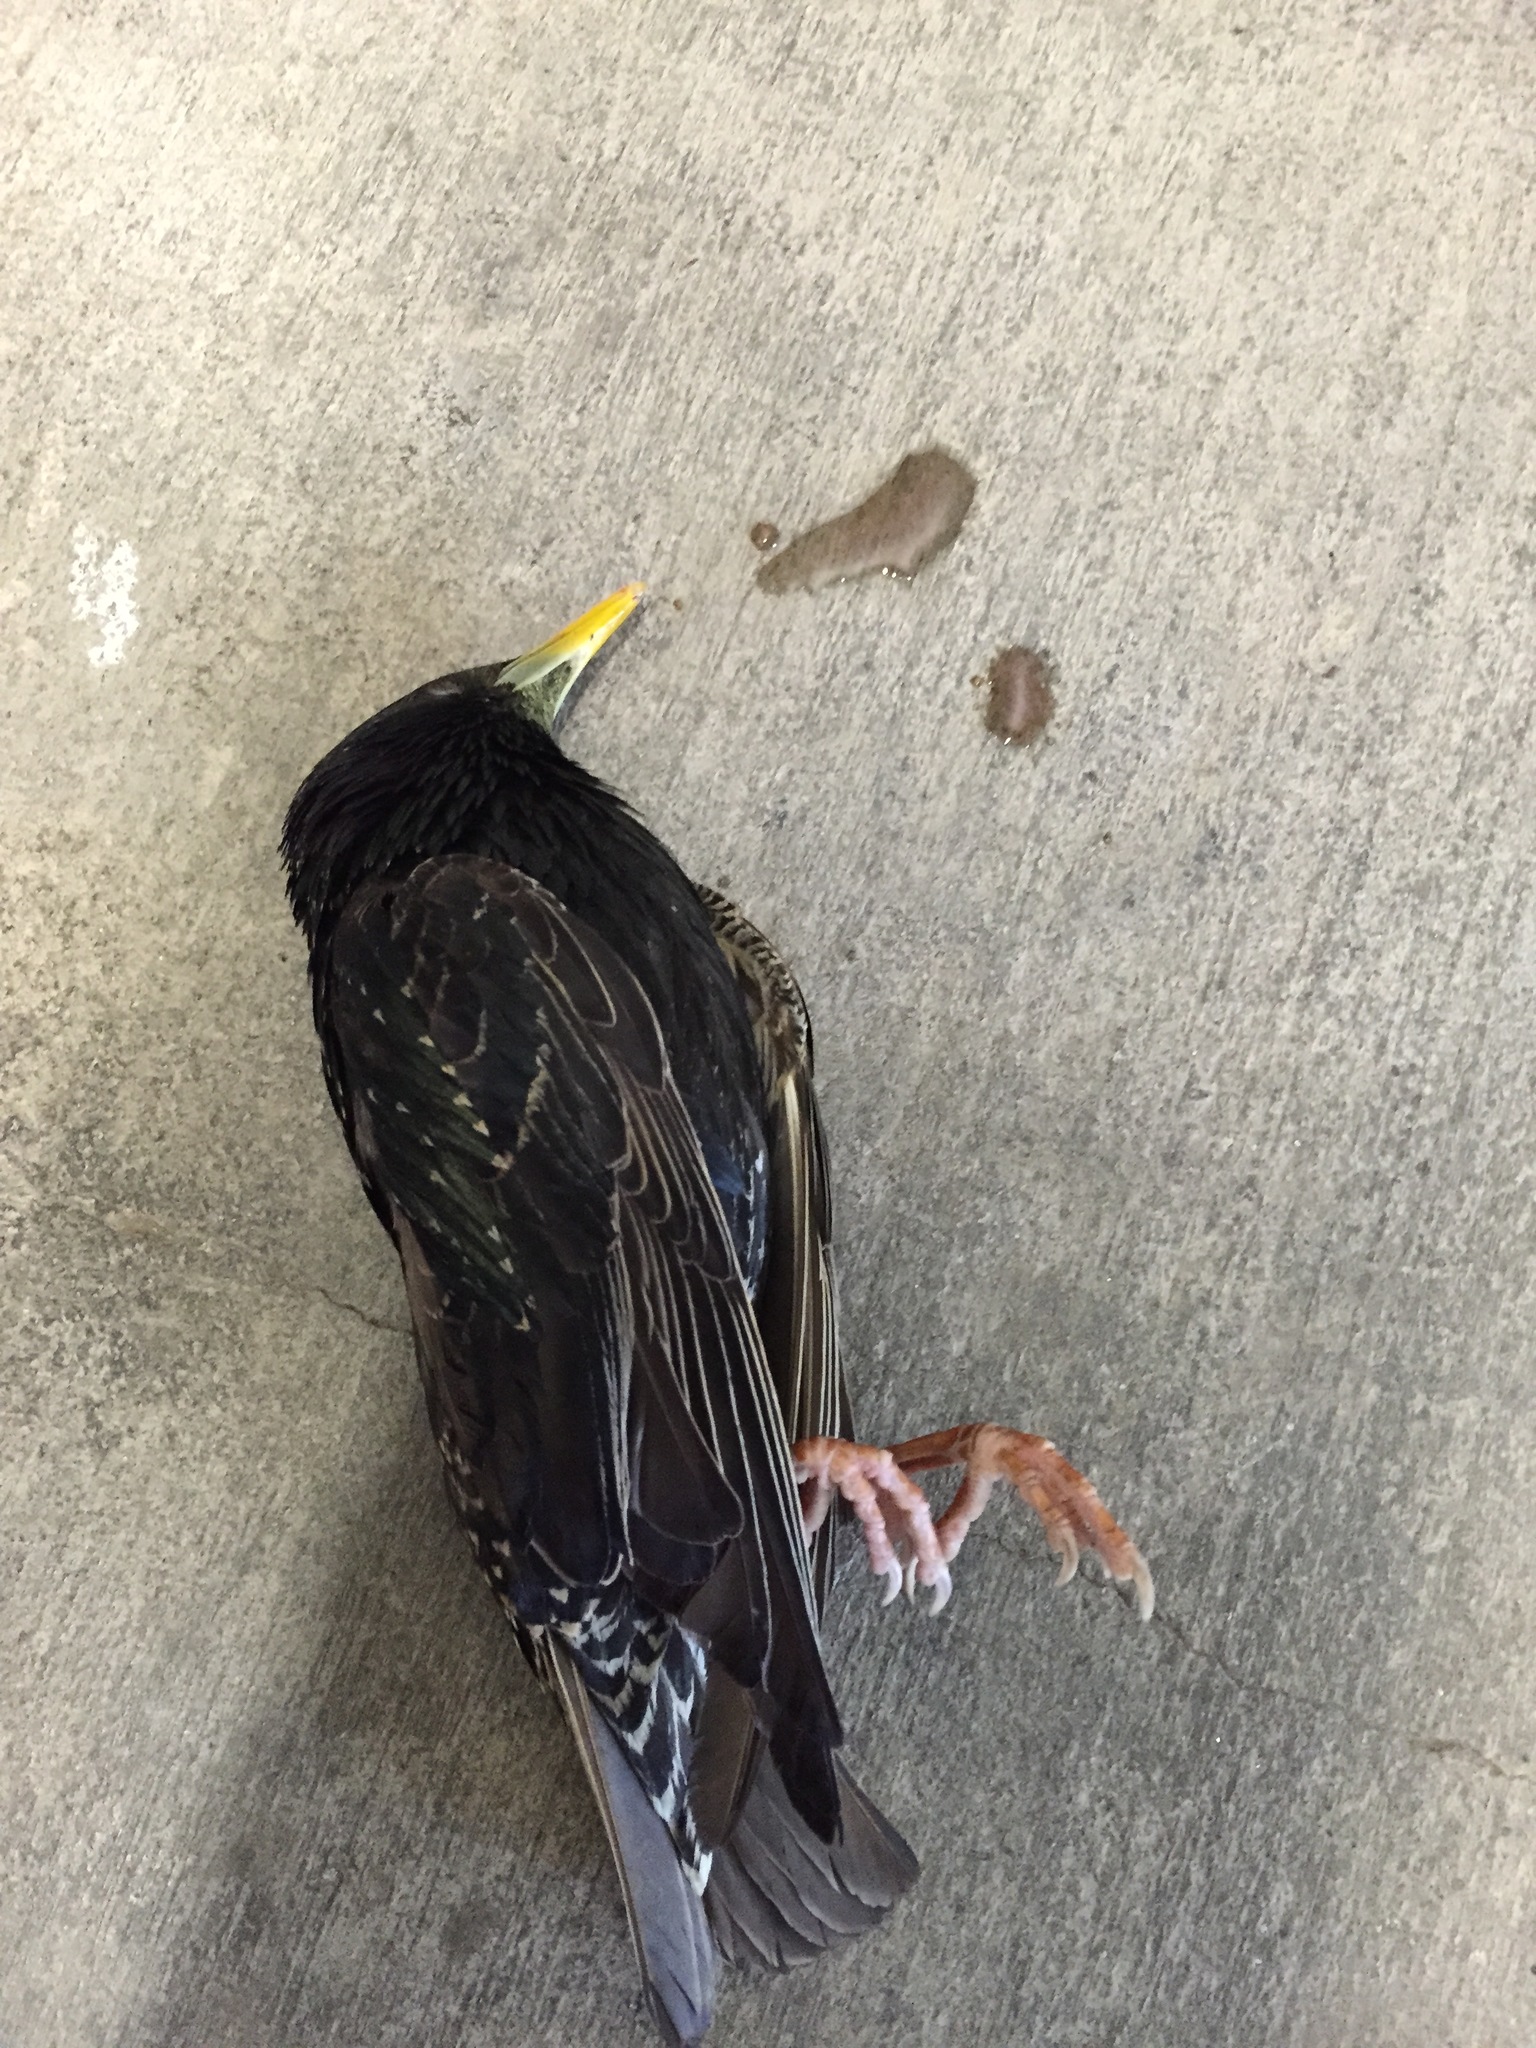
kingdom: Animalia
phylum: Chordata
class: Aves
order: Passeriformes
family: Sturnidae
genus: Sturnus
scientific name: Sturnus vulgaris
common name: Common starling
